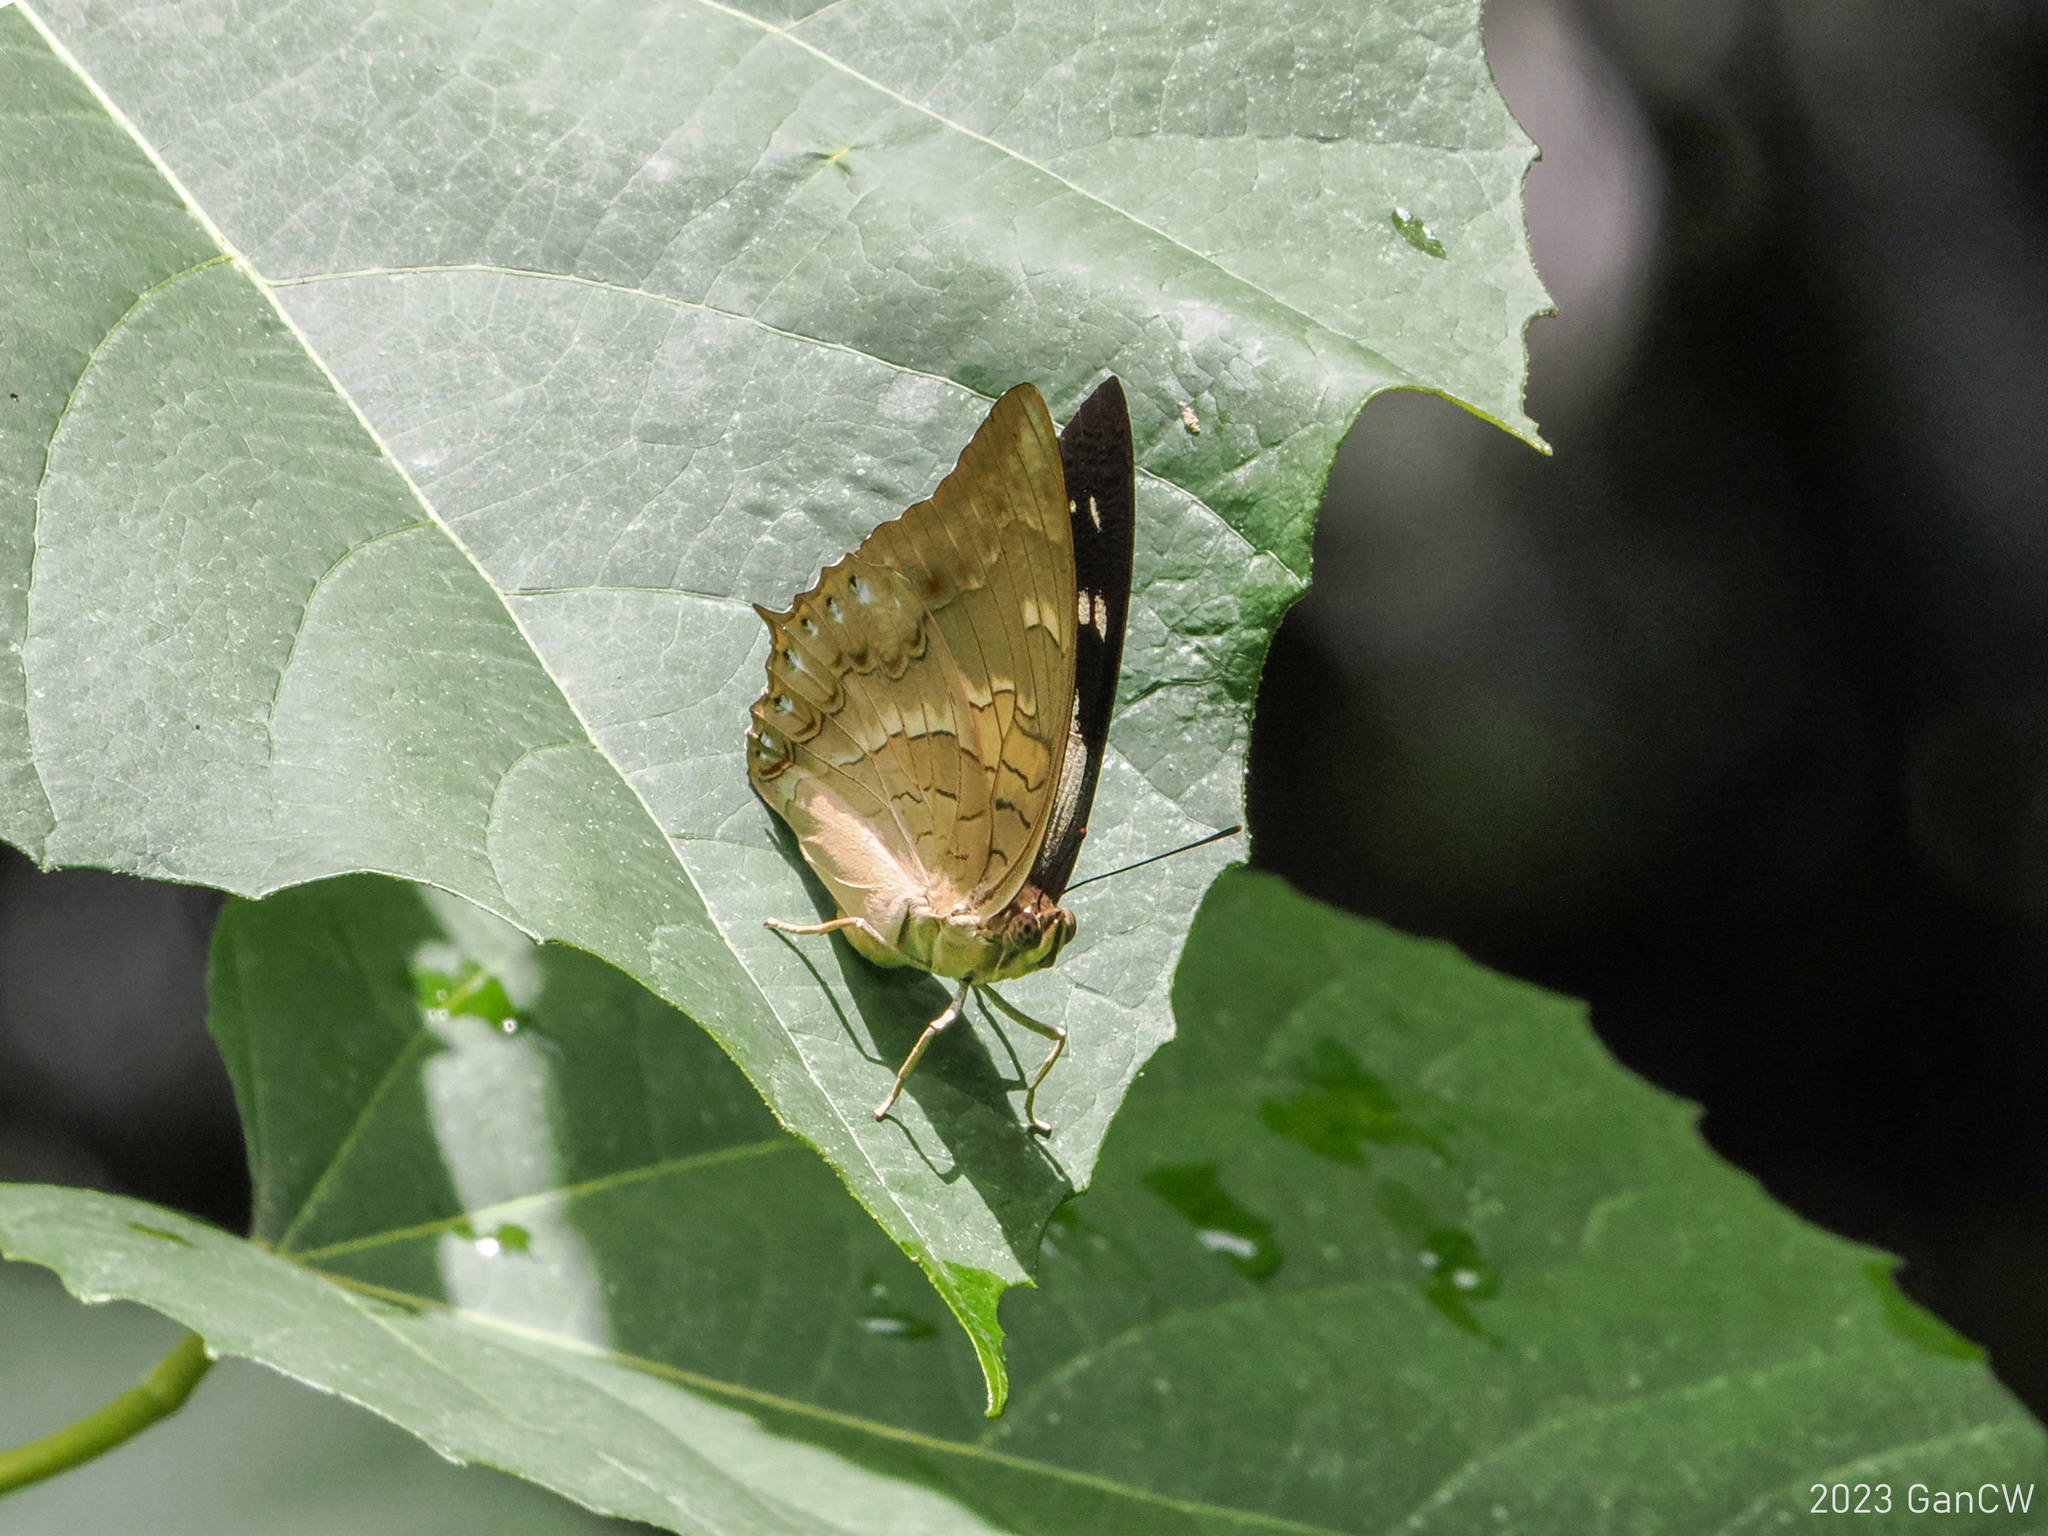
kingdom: Animalia
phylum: Arthropoda
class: Insecta
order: Lepidoptera
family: Nymphalidae
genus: Charaxes
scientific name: Charaxes nitebis
